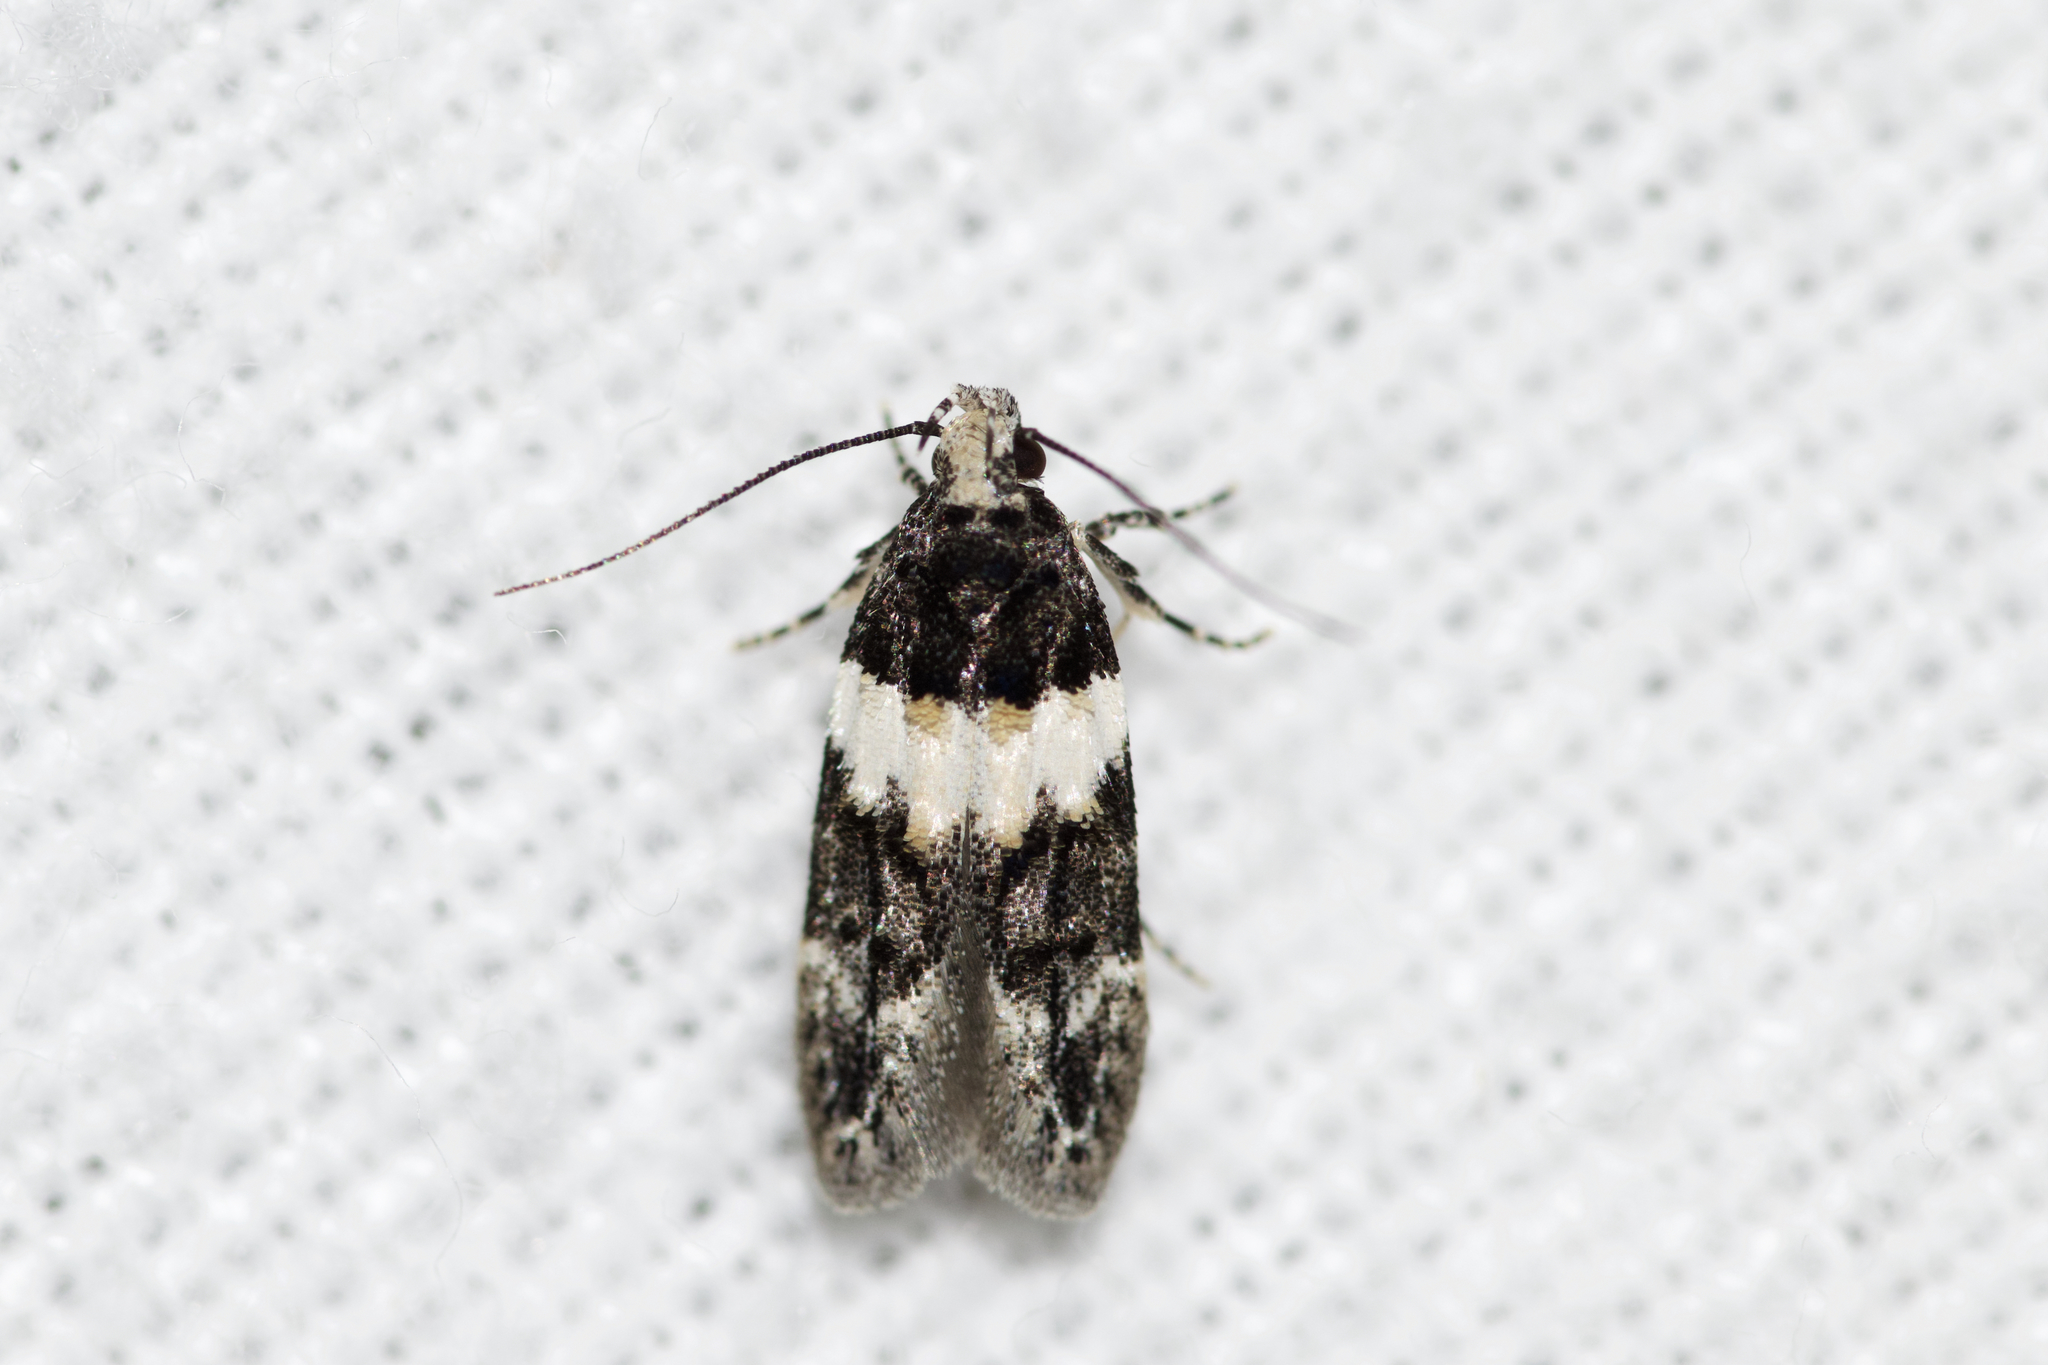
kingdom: Animalia
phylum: Arthropoda
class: Insecta
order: Lepidoptera
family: Gelechiidae
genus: Pubitelphusa
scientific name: Pubitelphusa latifasciella
